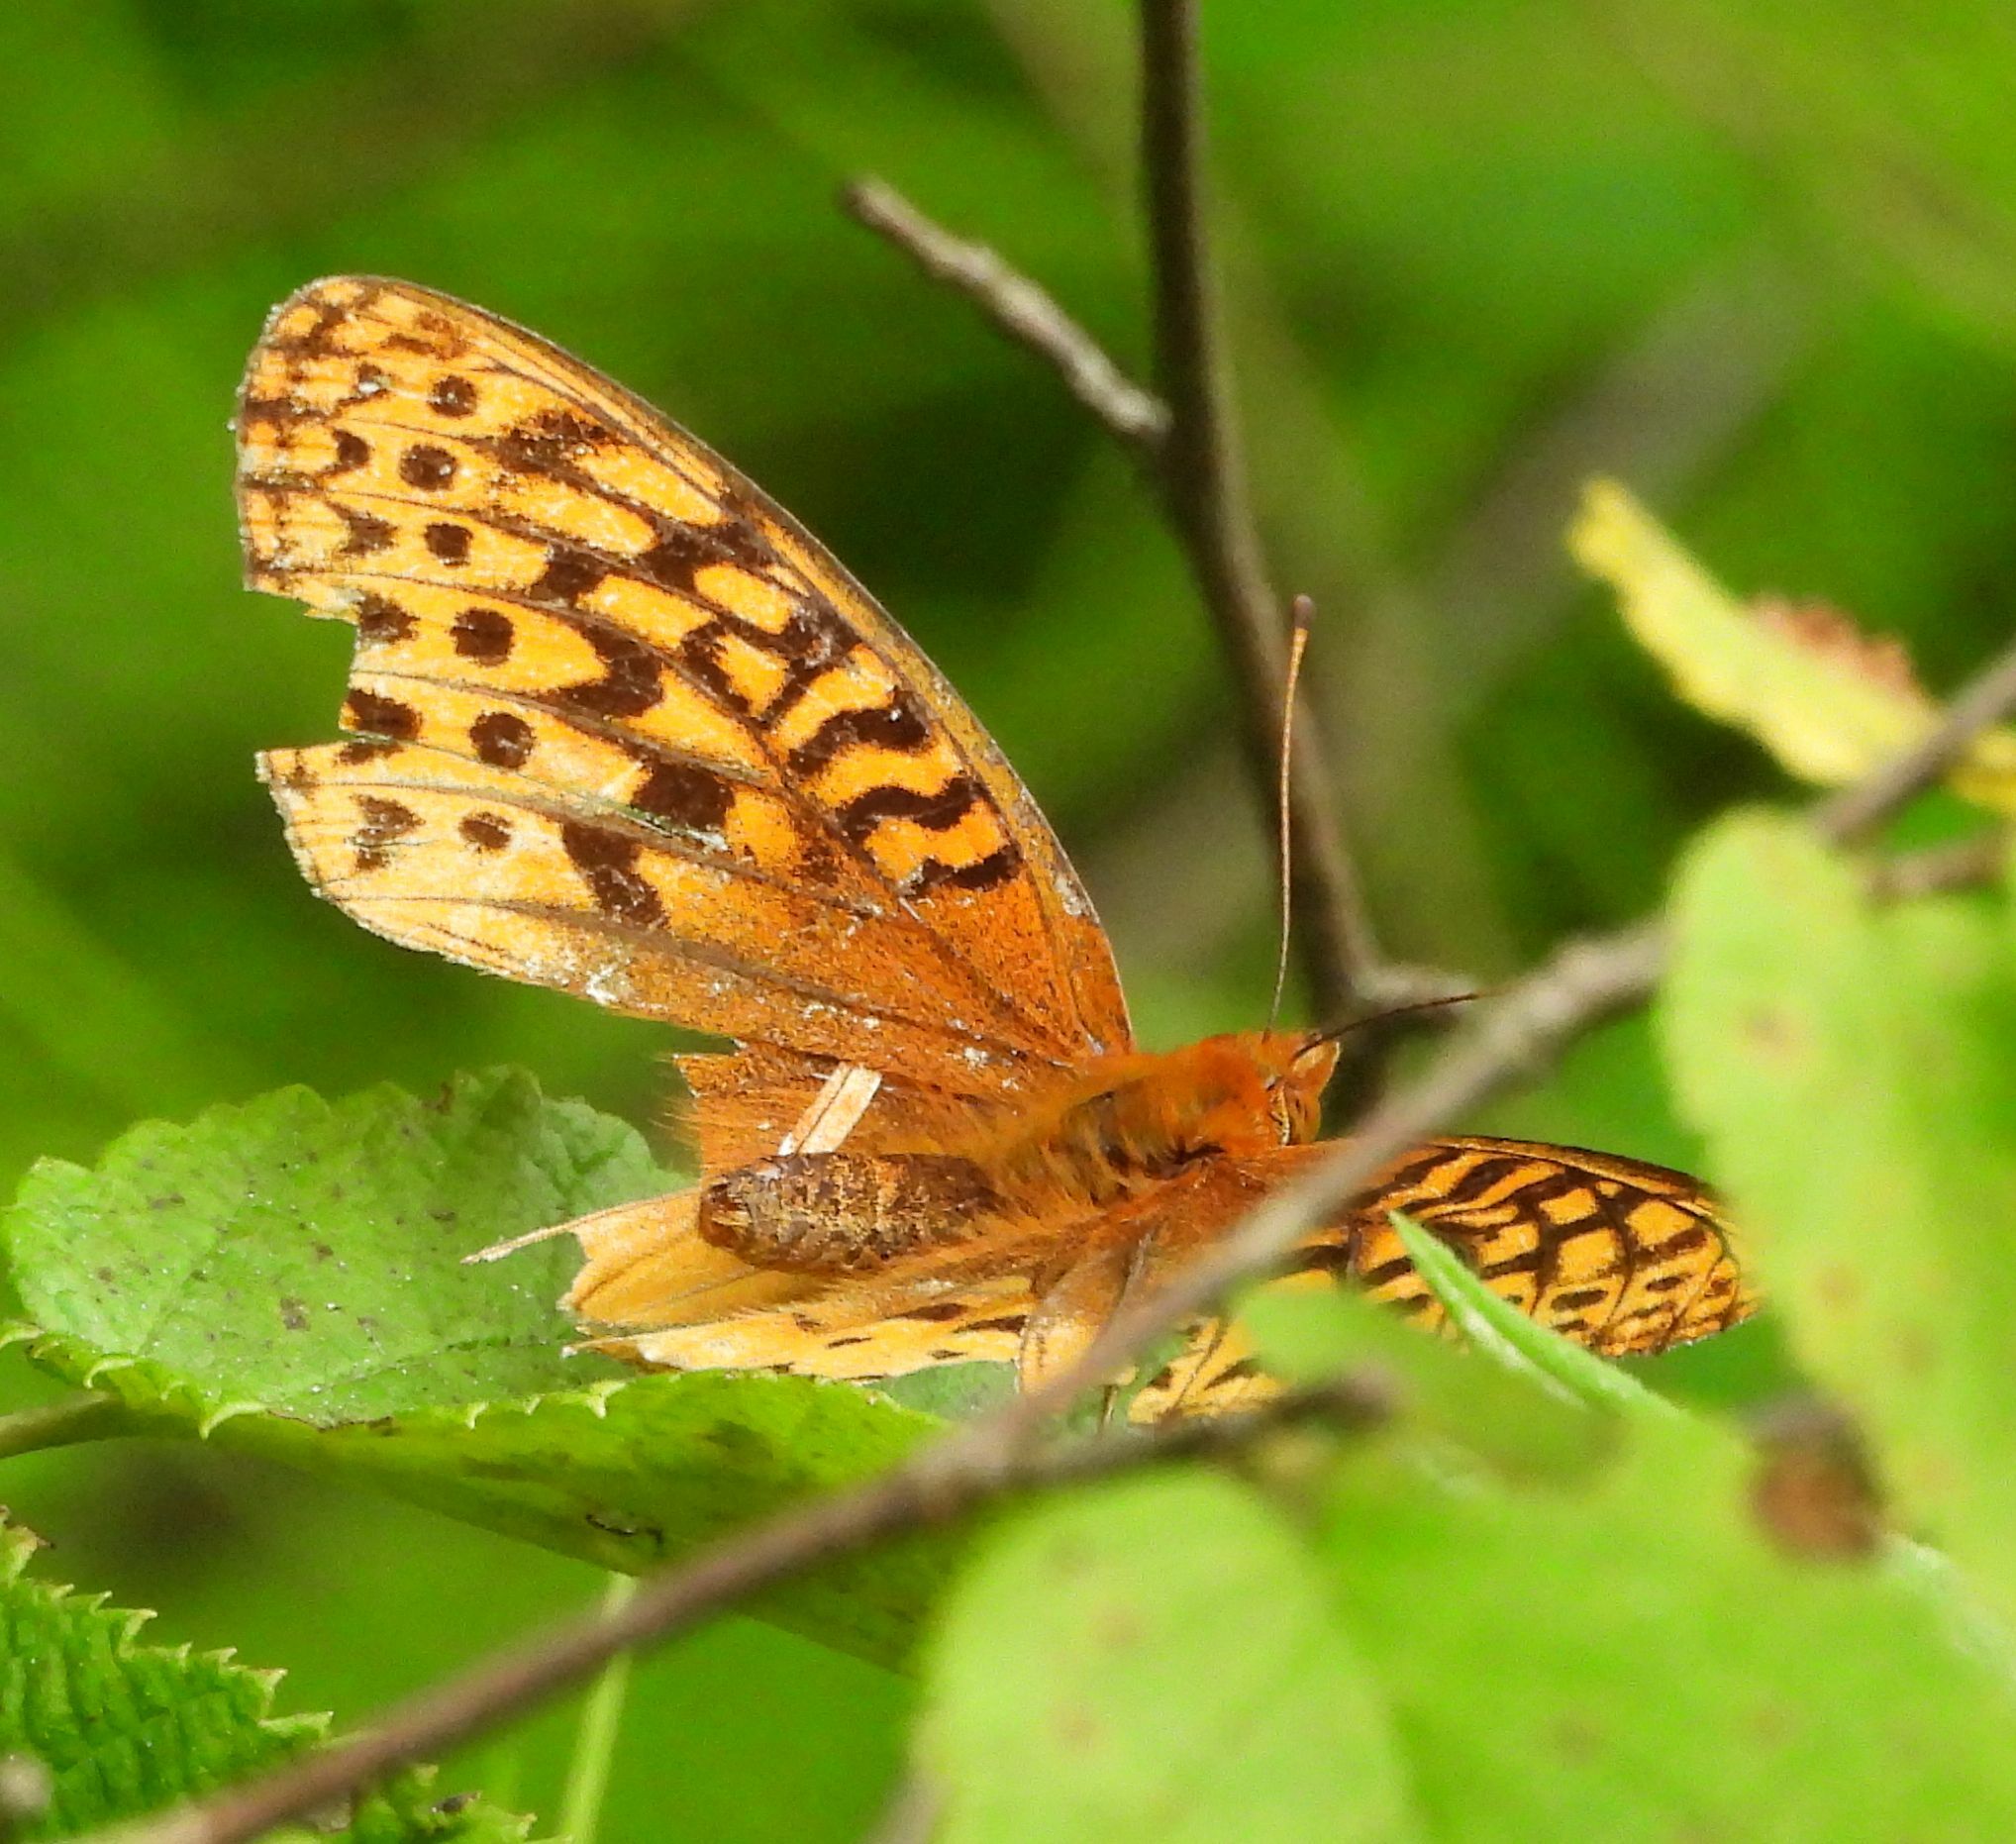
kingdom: Animalia
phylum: Arthropoda
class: Insecta
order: Lepidoptera
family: Nymphalidae
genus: Speyeria
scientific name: Speyeria cybele
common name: Great spangled fritillary
